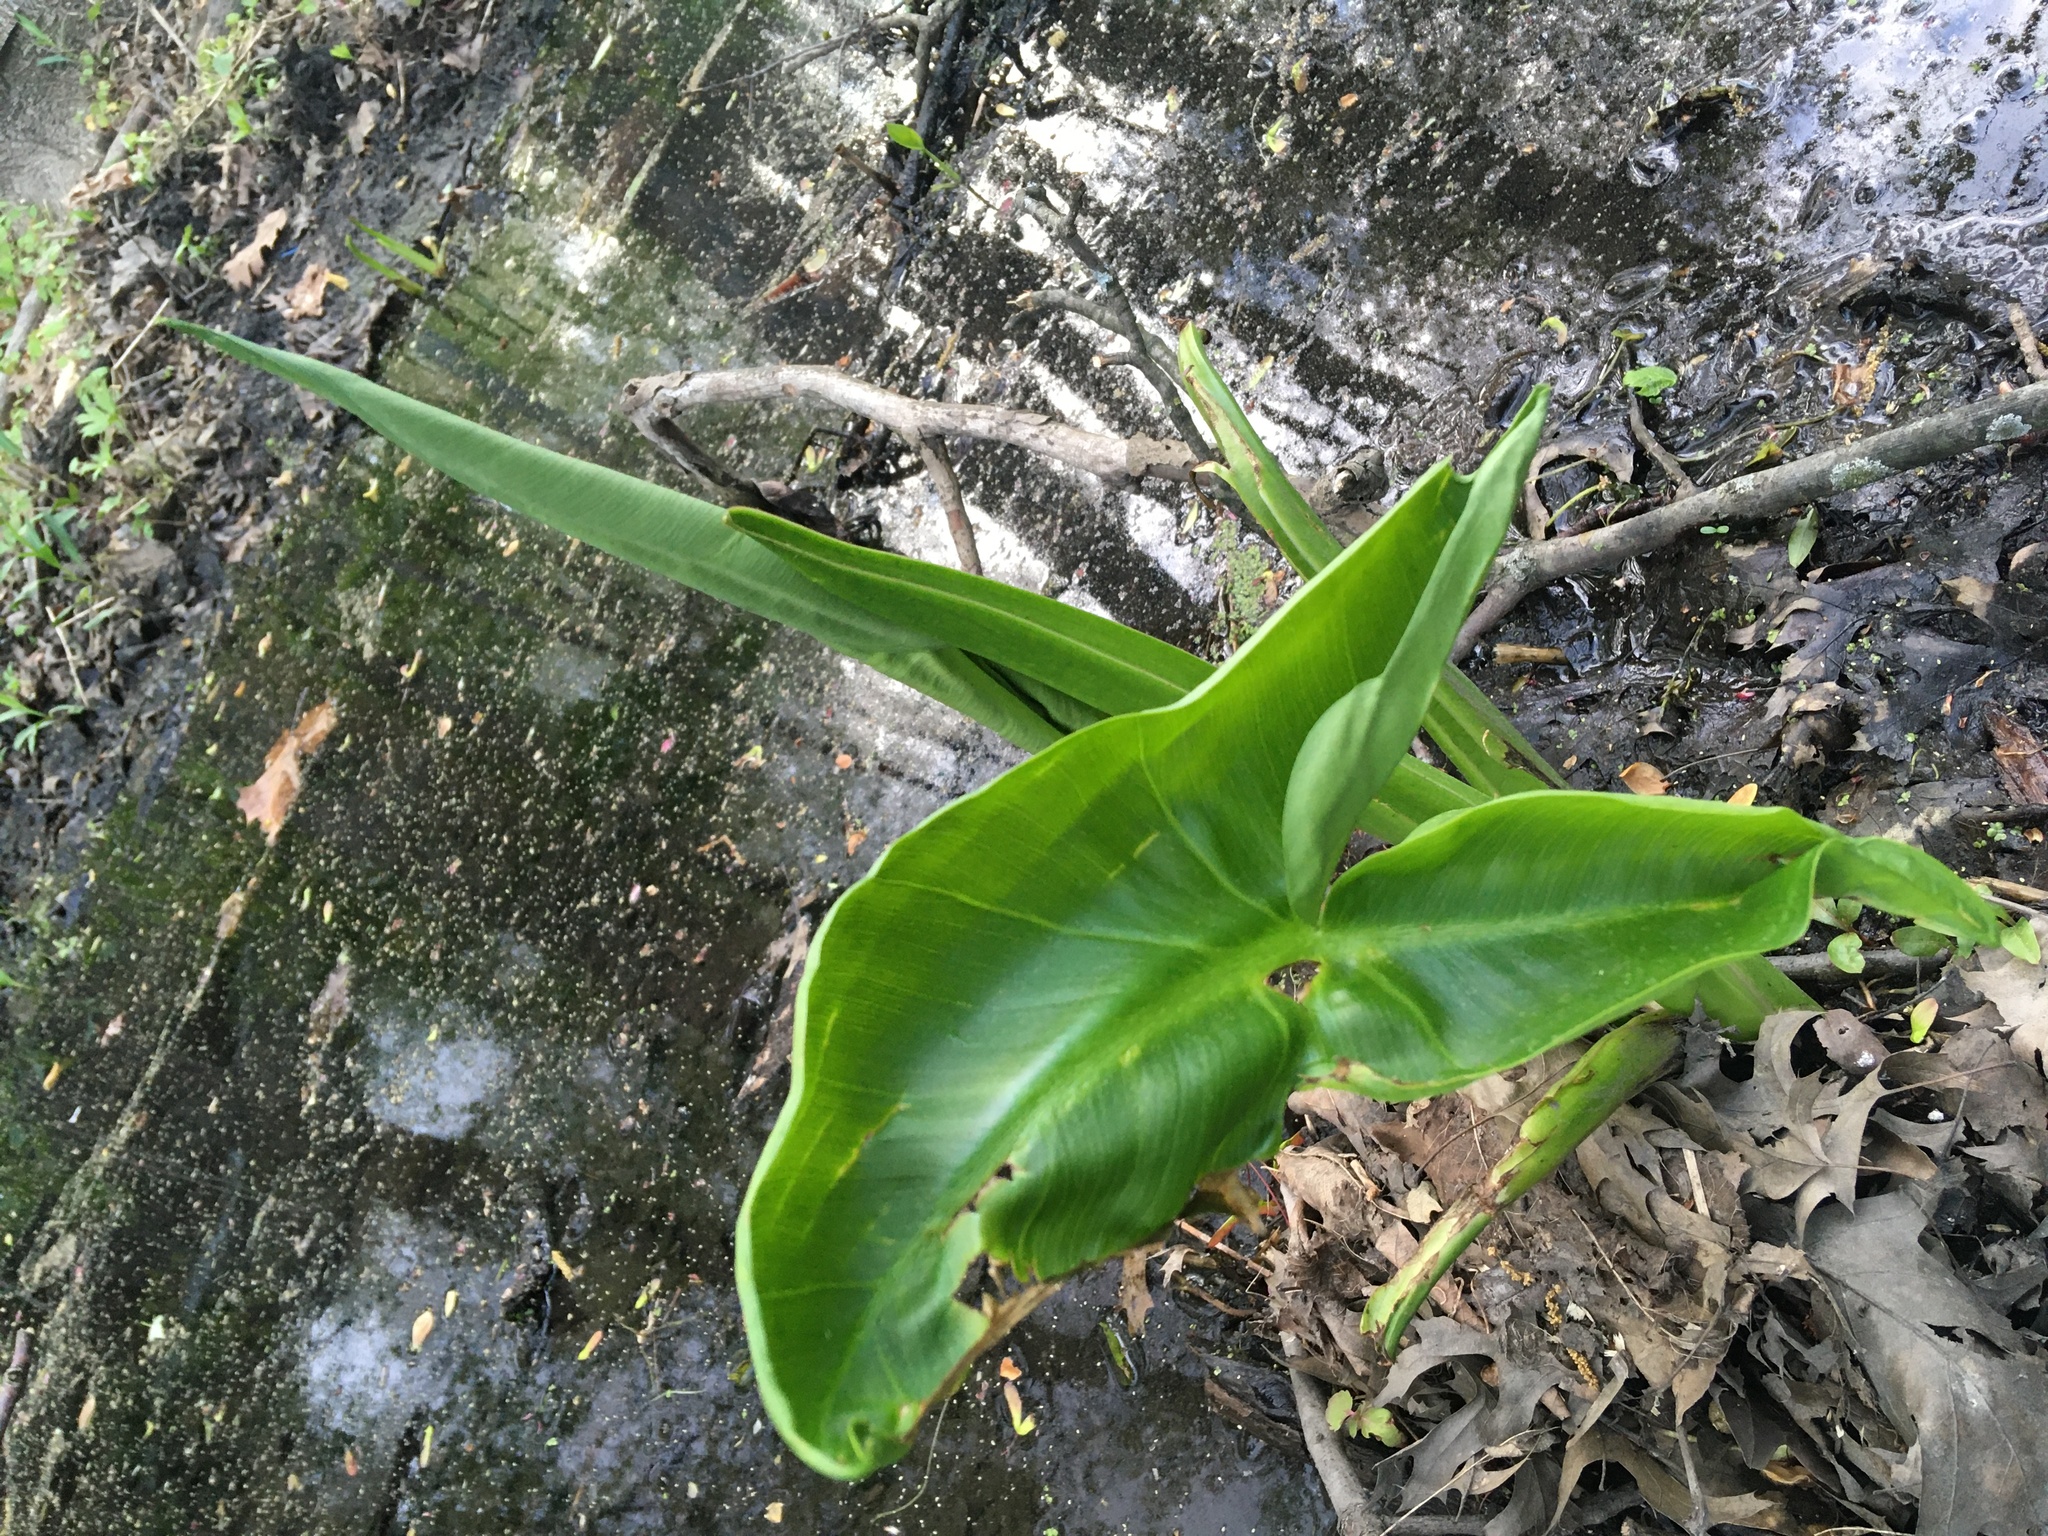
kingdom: Plantae
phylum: Tracheophyta
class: Liliopsida
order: Alismatales
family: Araceae
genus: Peltandra
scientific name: Peltandra virginica
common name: Arrow arum
